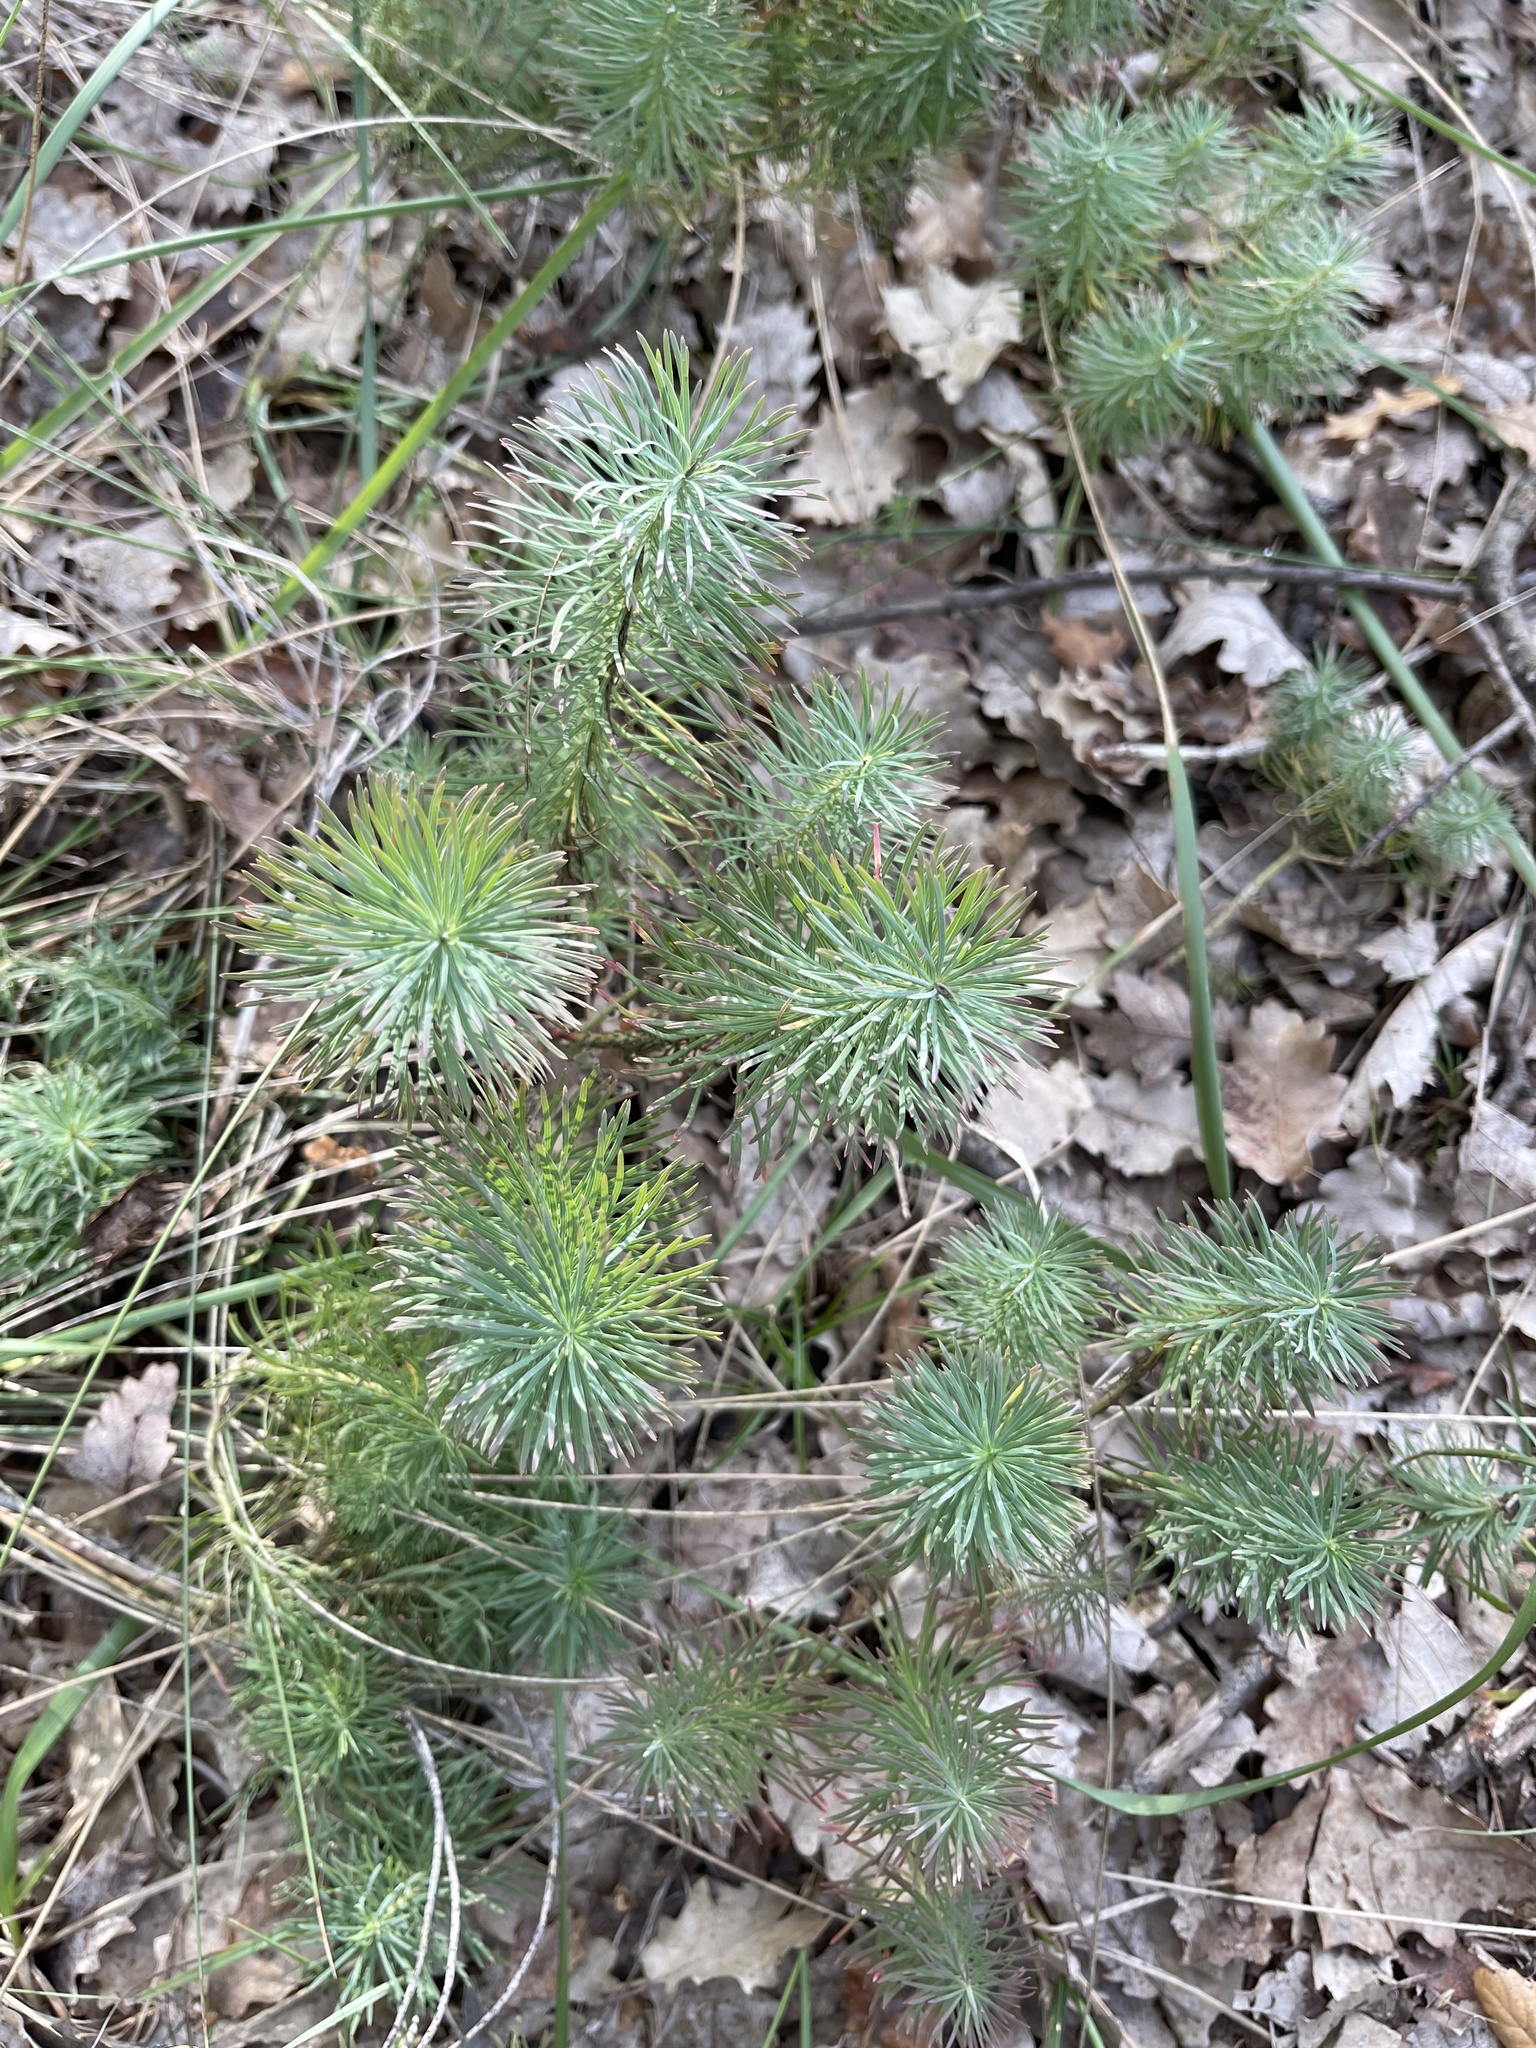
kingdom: Plantae
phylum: Tracheophyta
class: Magnoliopsida
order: Malpighiales
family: Euphorbiaceae
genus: Euphorbia
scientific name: Euphorbia cyparissias
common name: Cypress spurge
